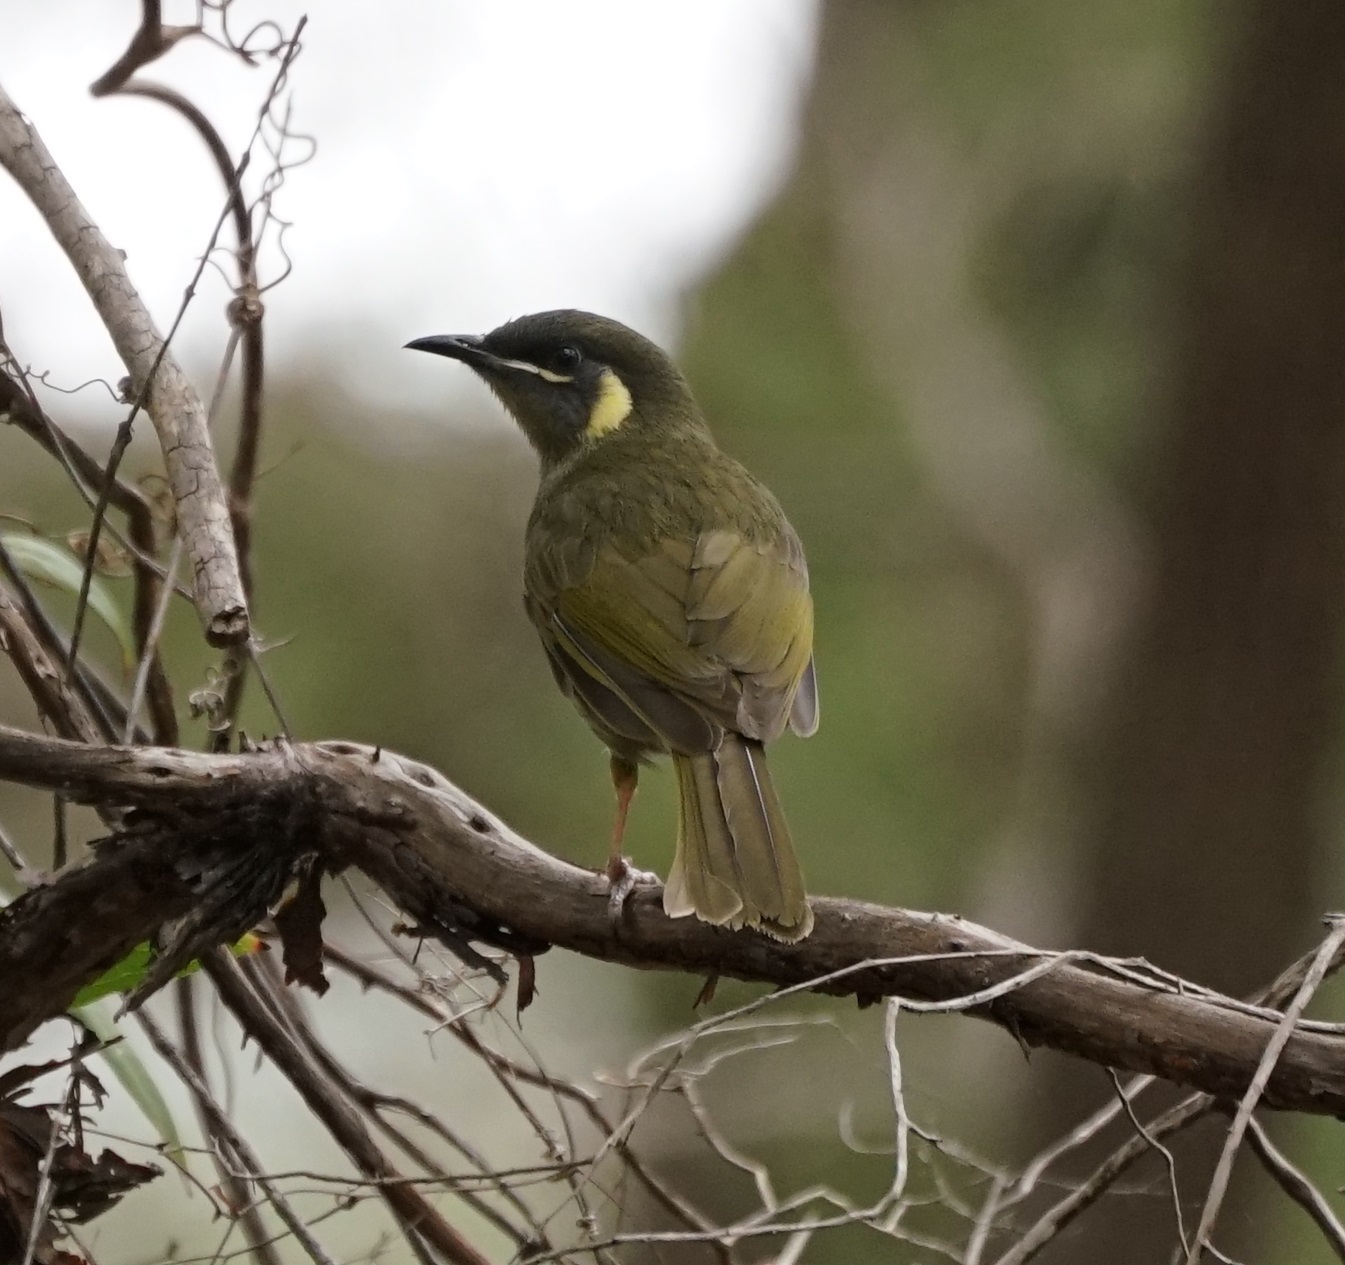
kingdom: Animalia
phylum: Chordata
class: Aves
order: Passeriformes
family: Meliphagidae
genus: Meliphaga
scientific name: Meliphaga lewinii
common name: Lewin's honeyeater
